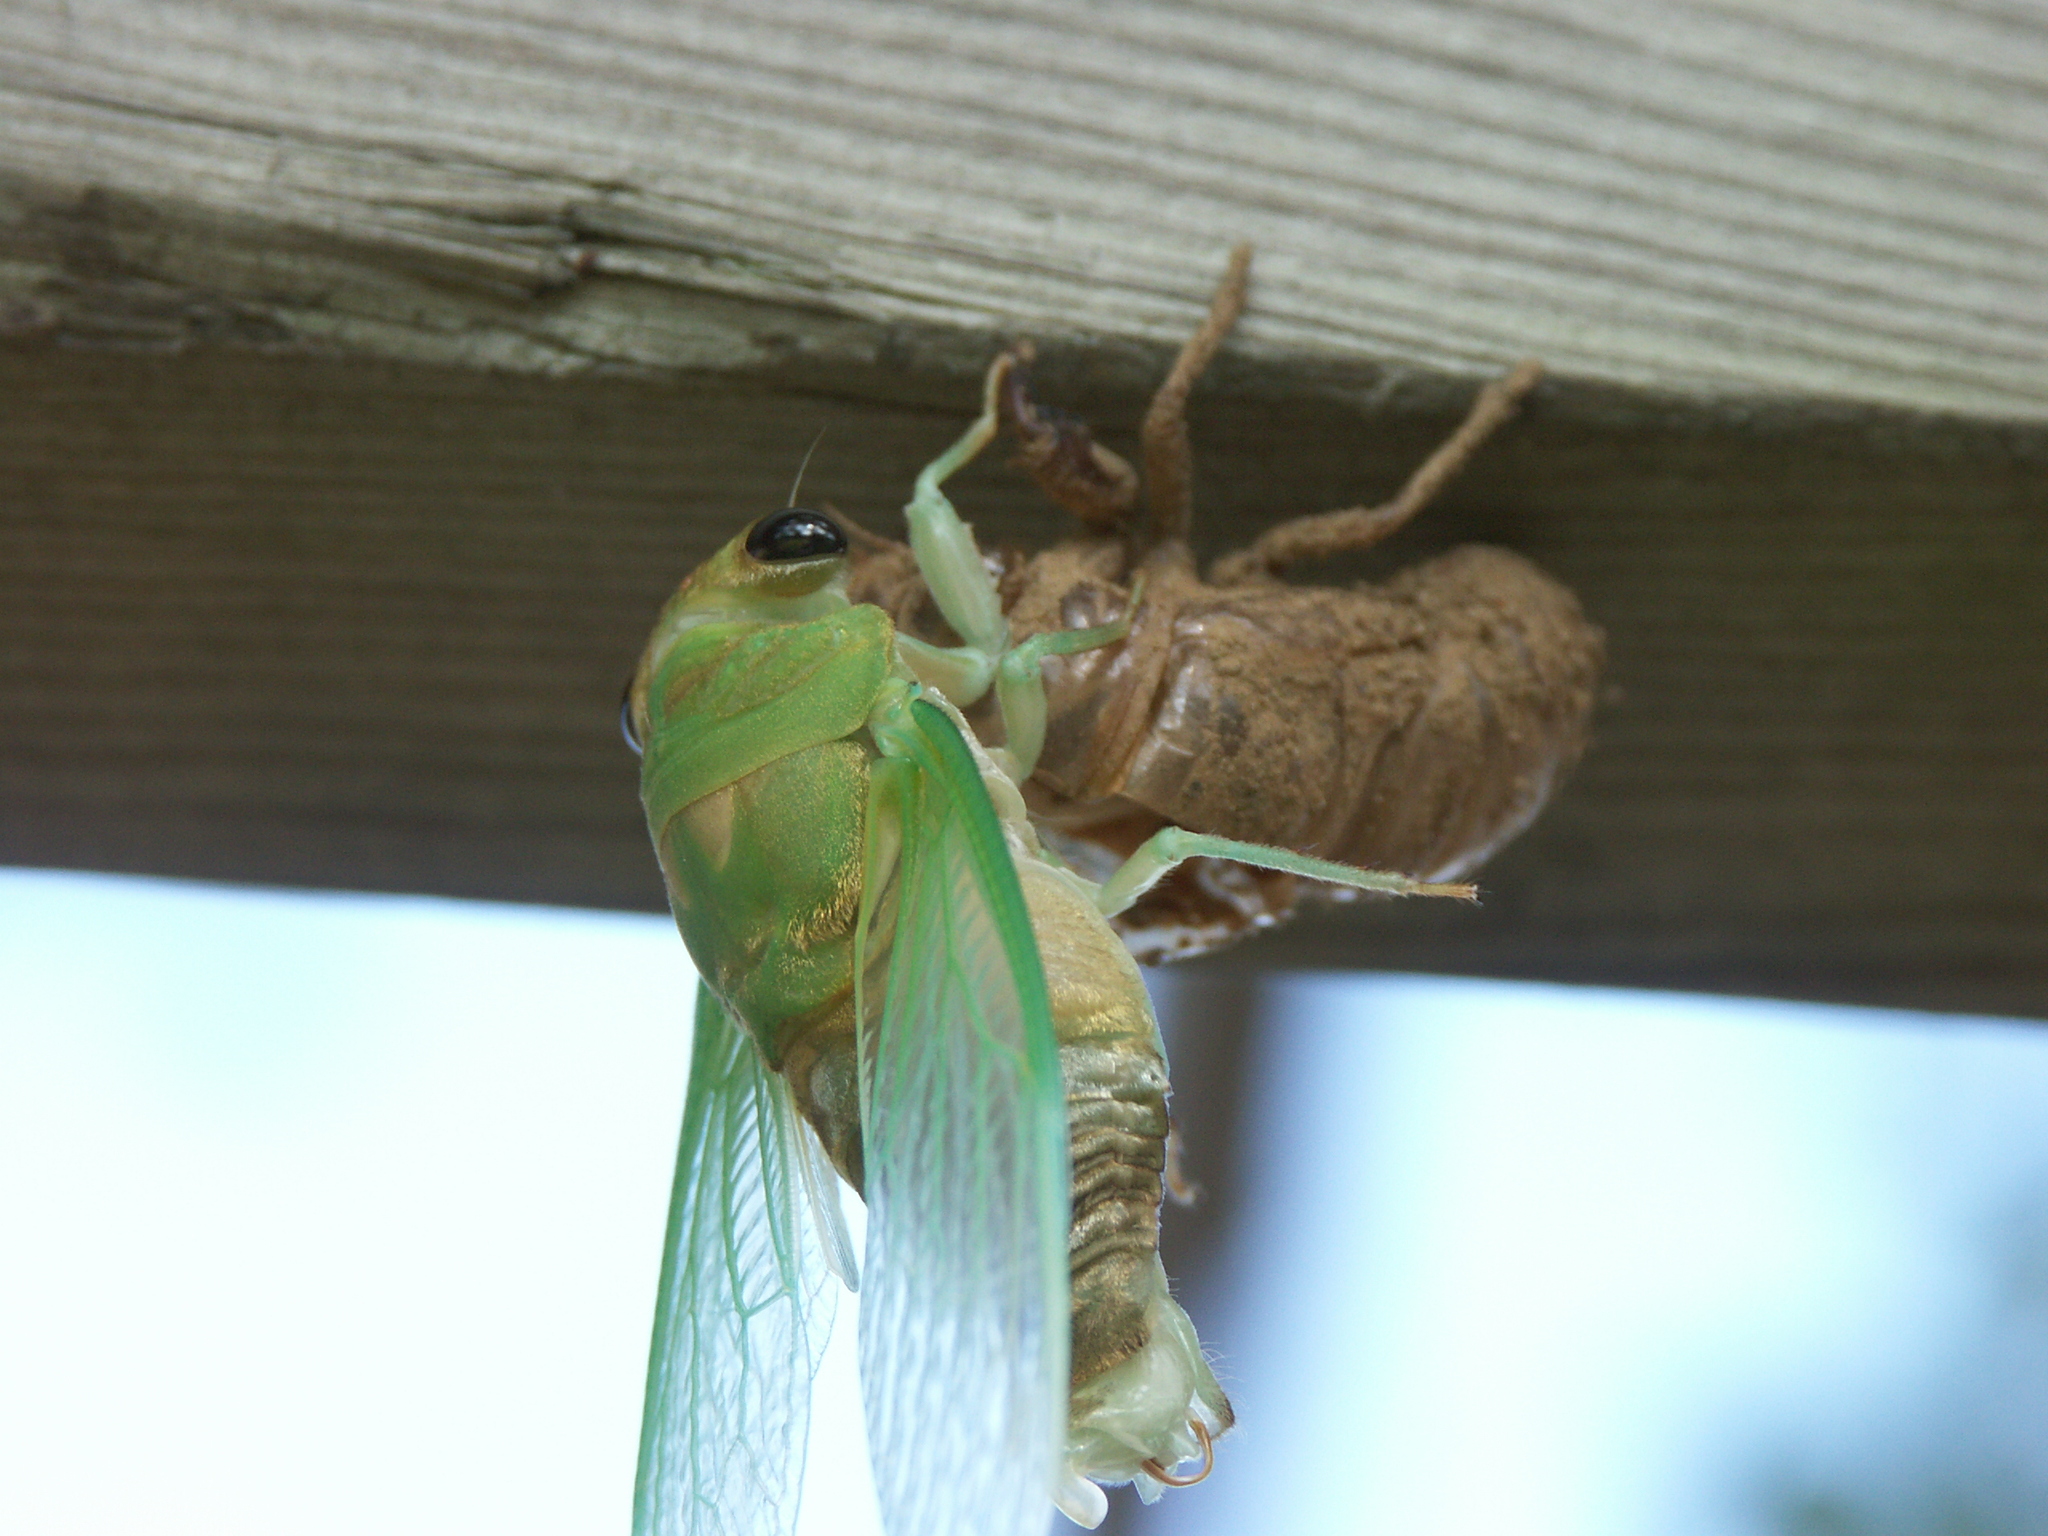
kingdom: Animalia
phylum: Arthropoda
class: Insecta
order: Hemiptera
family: Cicadidae
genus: Neotibicen
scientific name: Neotibicen superbus
